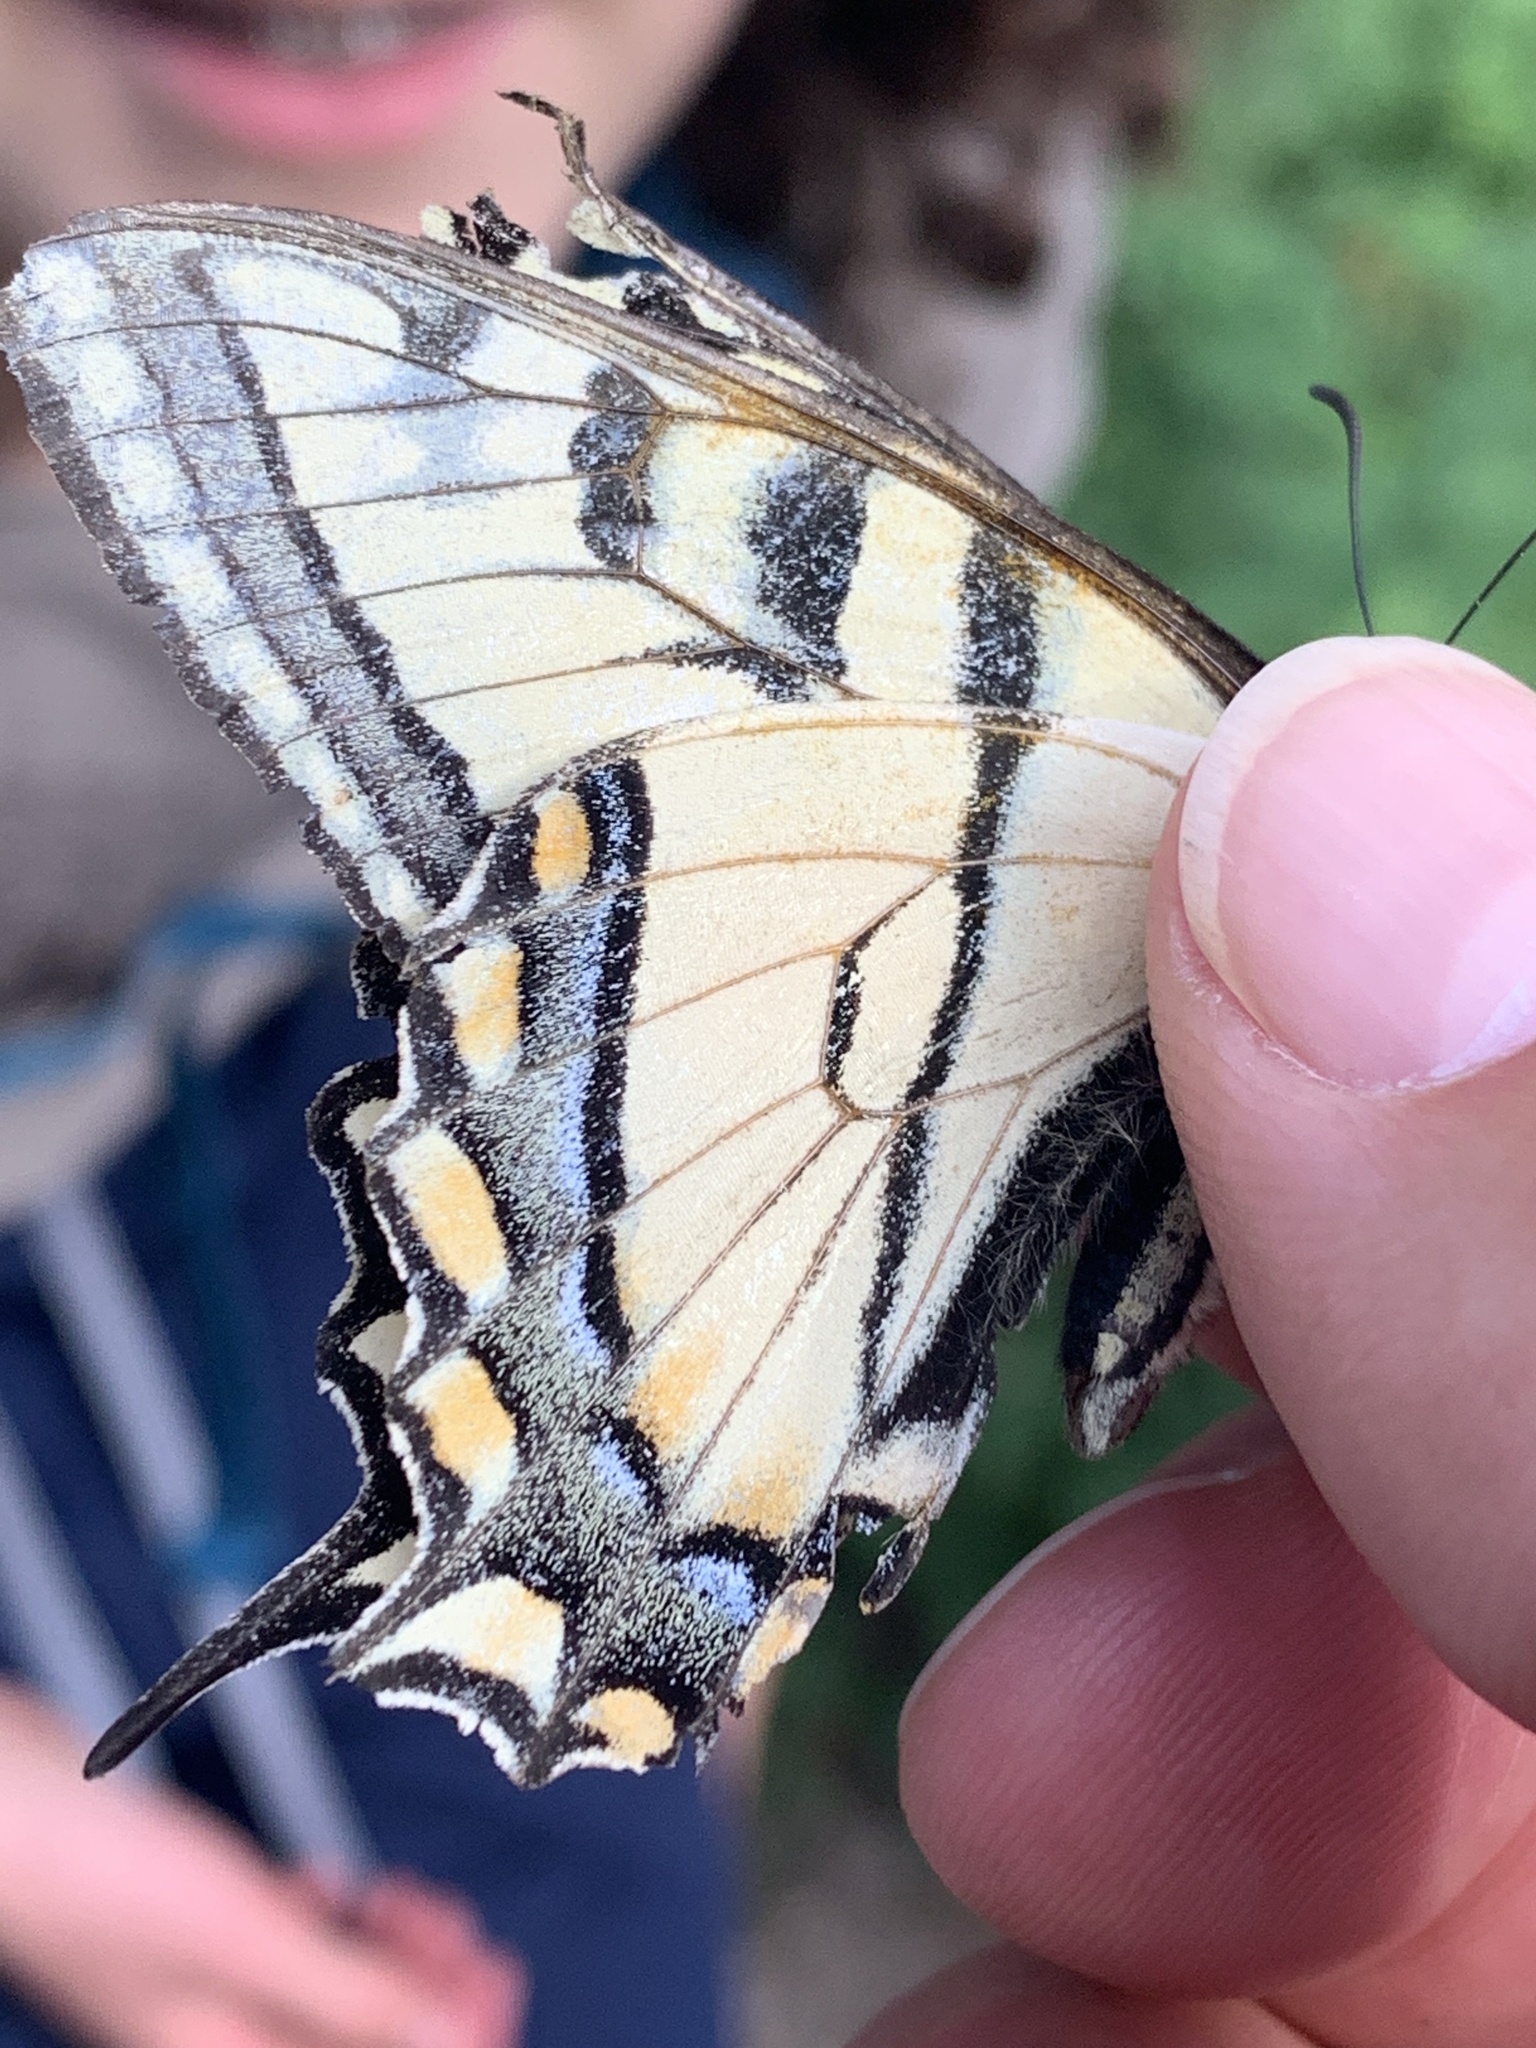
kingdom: Animalia
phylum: Arthropoda
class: Insecta
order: Lepidoptera
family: Papilionidae
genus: Papilio
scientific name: Papilio canadensis
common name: Canadian tiger swallowtail
